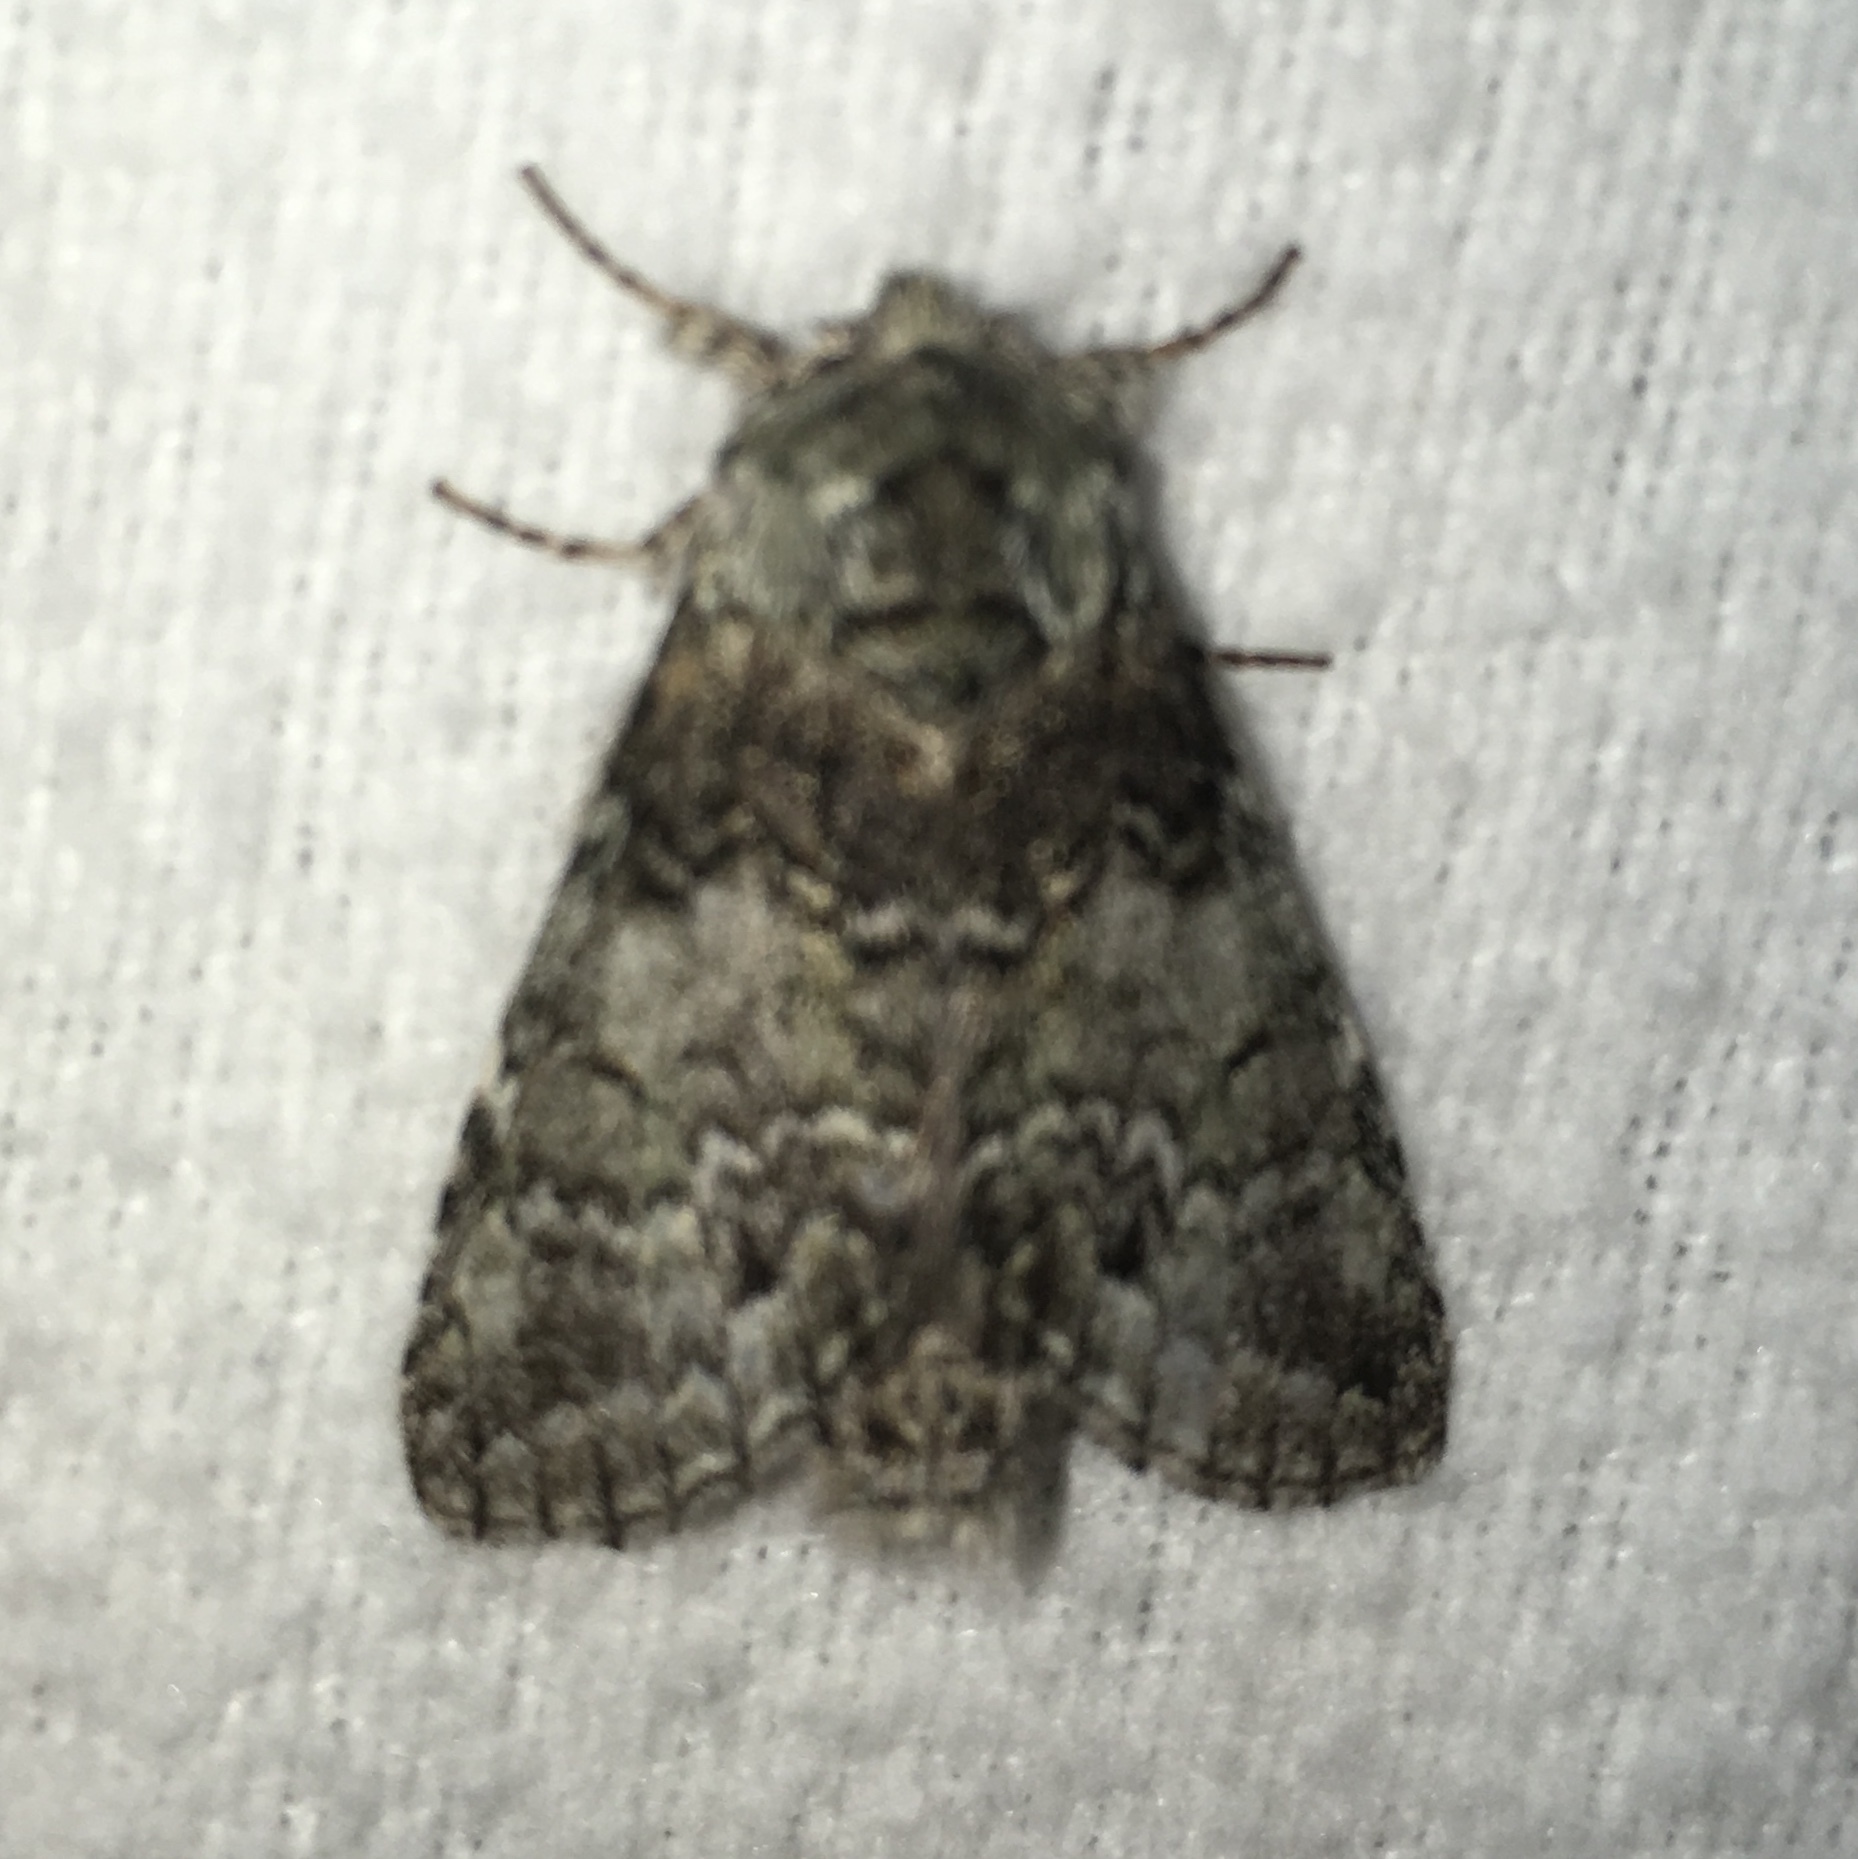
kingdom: Animalia
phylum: Arthropoda
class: Insecta
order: Lepidoptera
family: Notodontidae
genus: Macrurocampa
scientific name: Macrurocampa marthesia
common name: Mottled prominent
